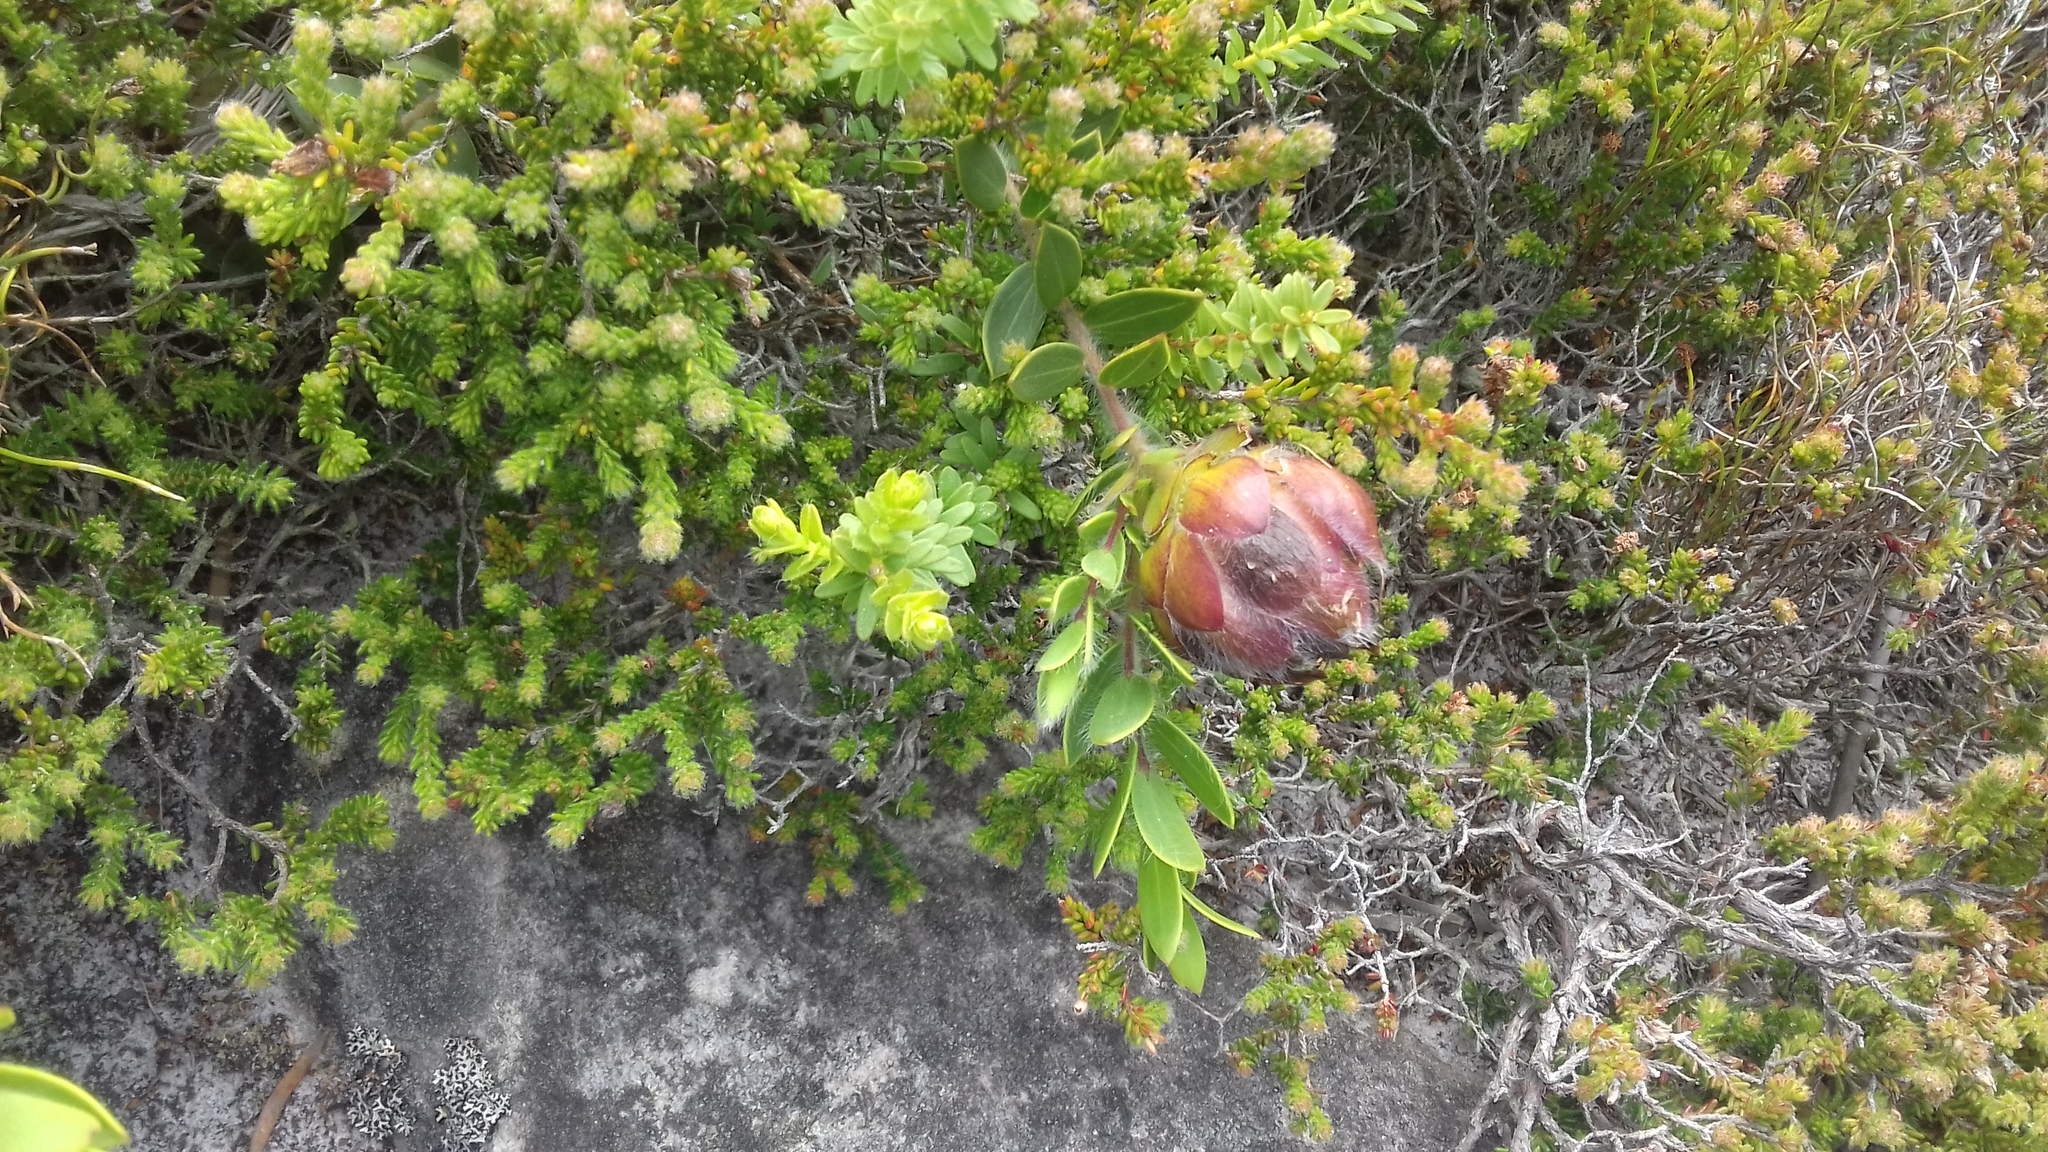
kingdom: Plantae
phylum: Tracheophyta
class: Magnoliopsida
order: Fabales
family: Fabaceae
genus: Liparia
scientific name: Liparia parva
